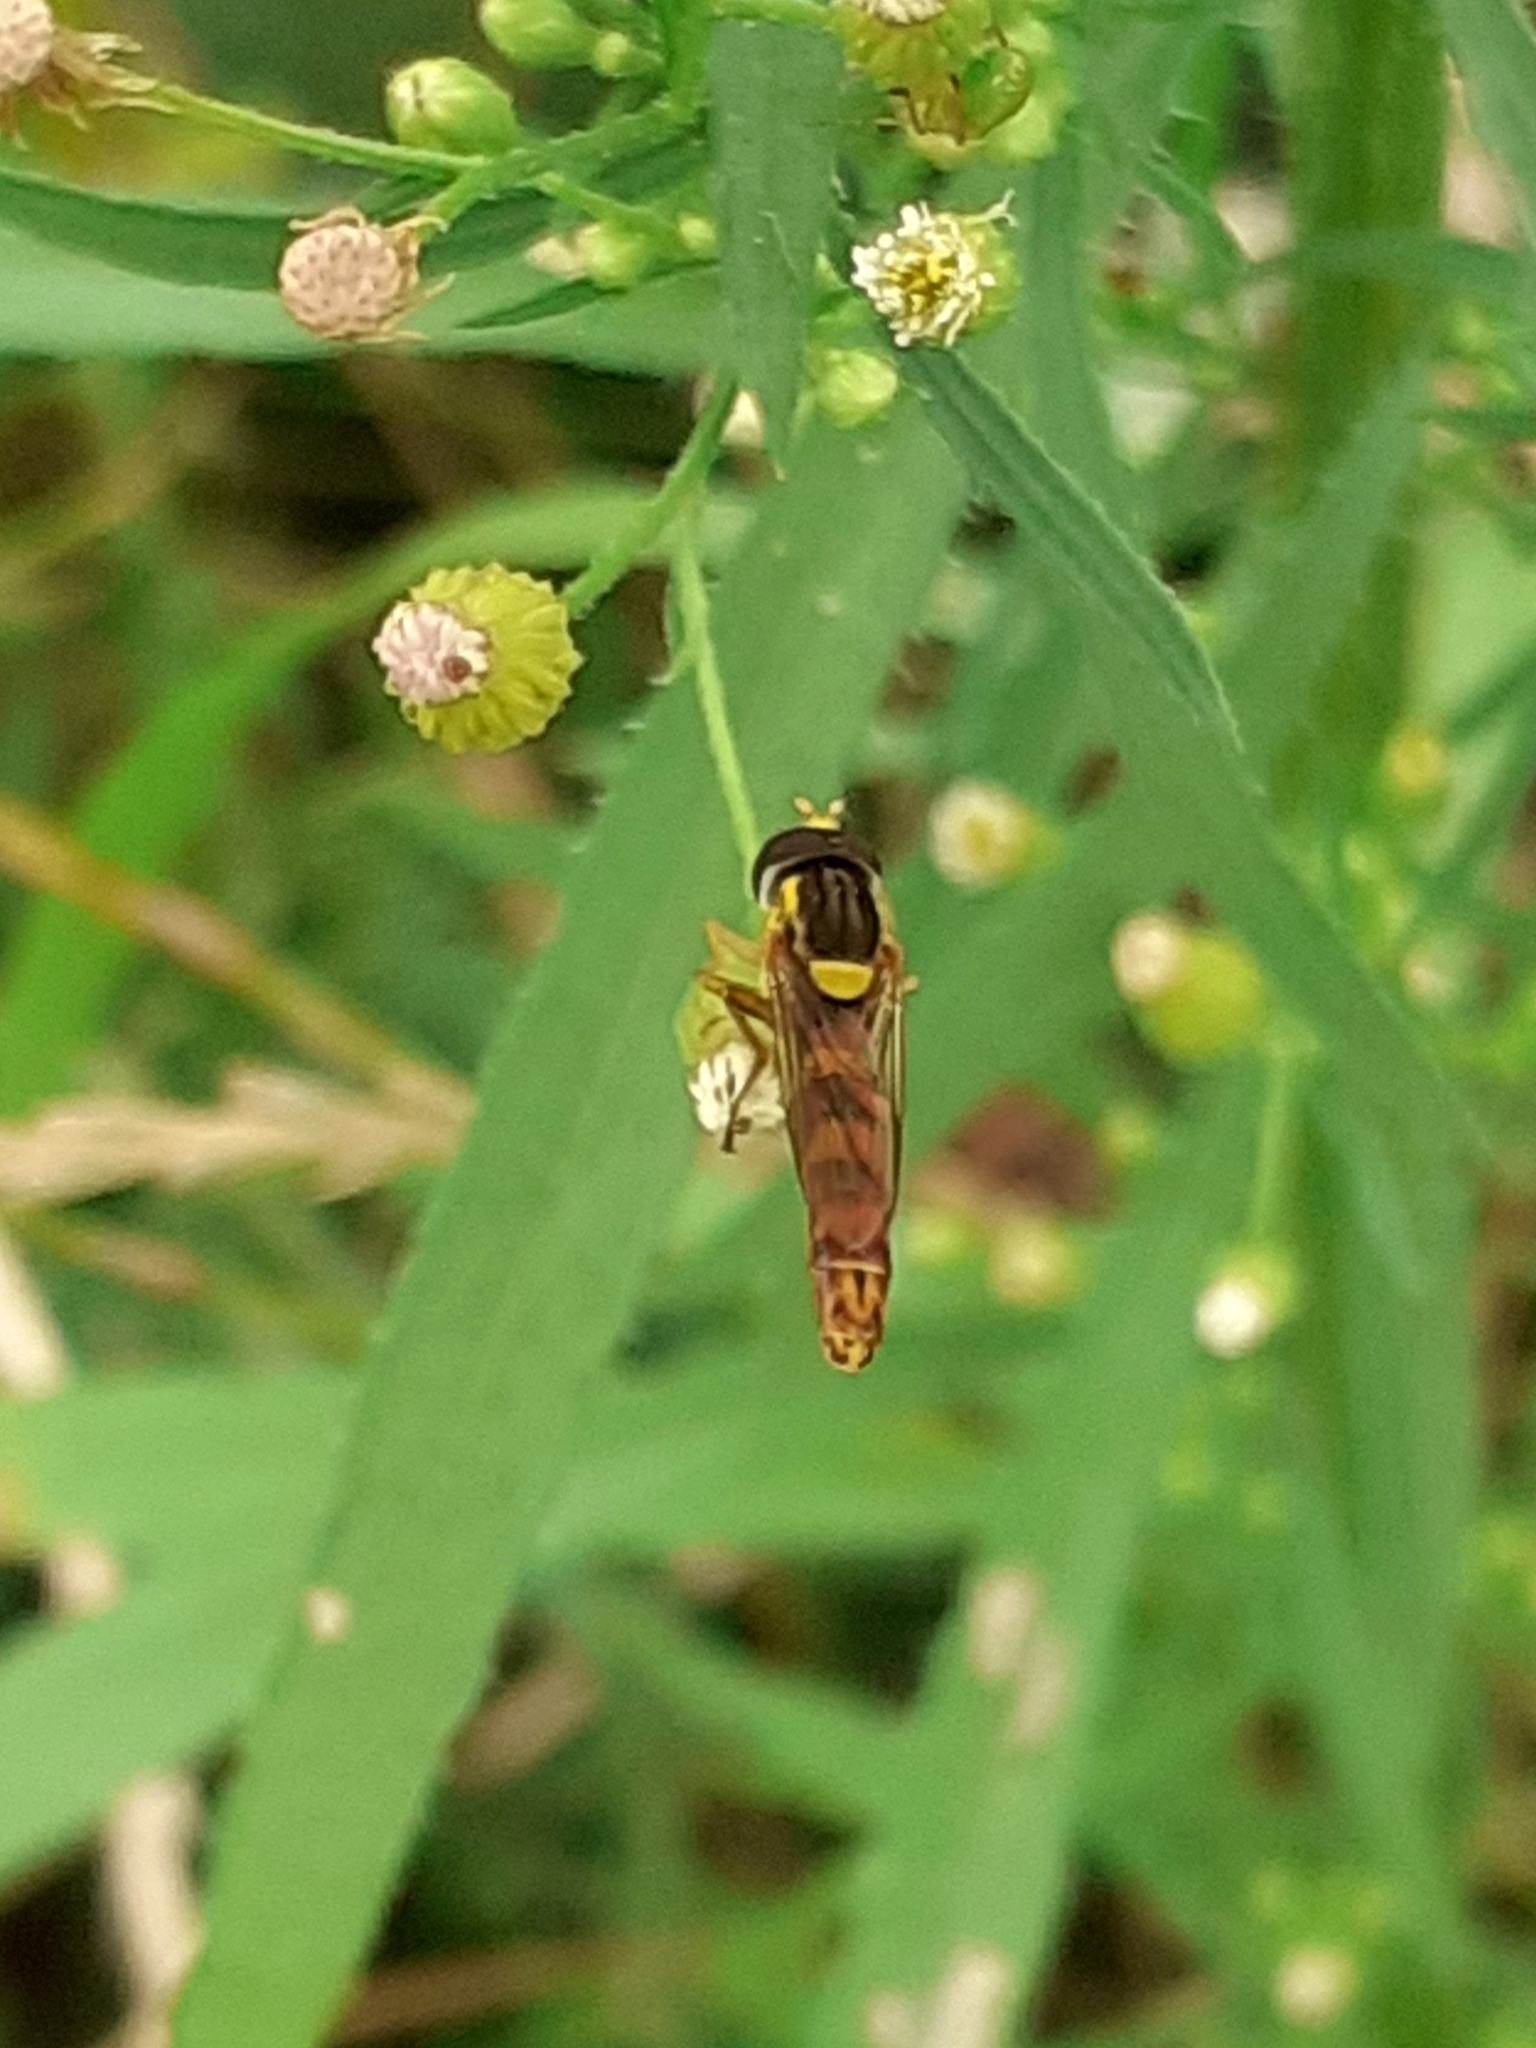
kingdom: Animalia
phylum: Arthropoda
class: Insecta
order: Diptera
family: Syrphidae
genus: Sphaerophoria
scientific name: Sphaerophoria scripta
